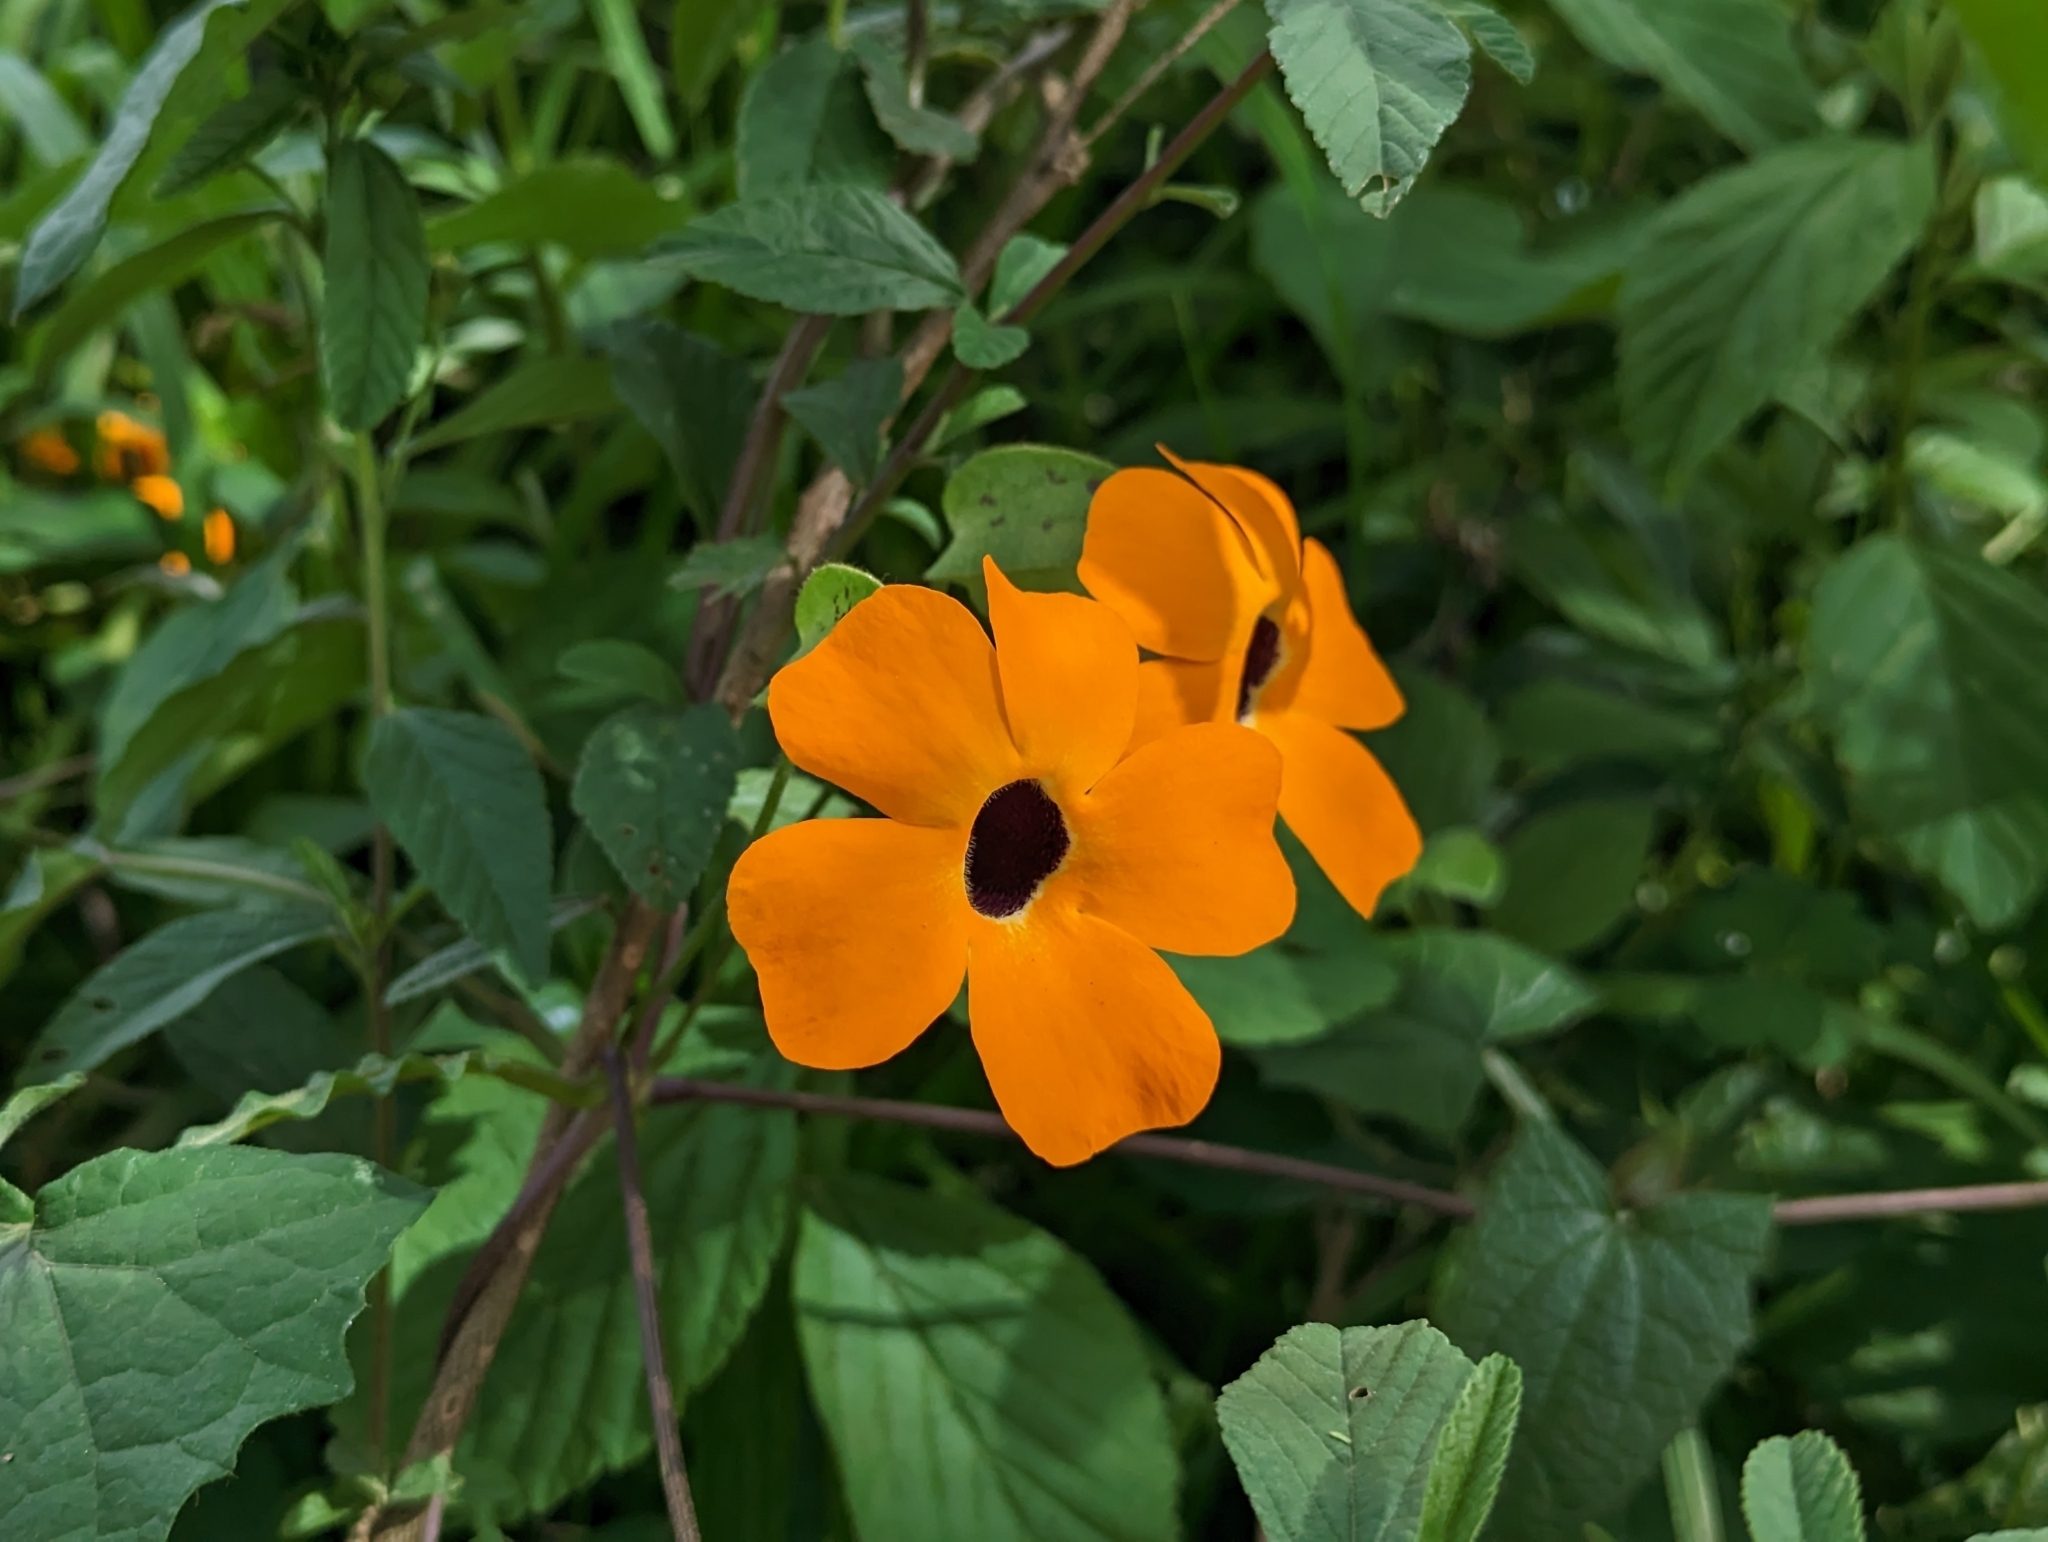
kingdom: Plantae
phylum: Tracheophyta
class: Magnoliopsida
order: Lamiales
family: Acanthaceae
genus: Thunbergia
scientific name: Thunbergia alata
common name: Blackeyed susan vine
